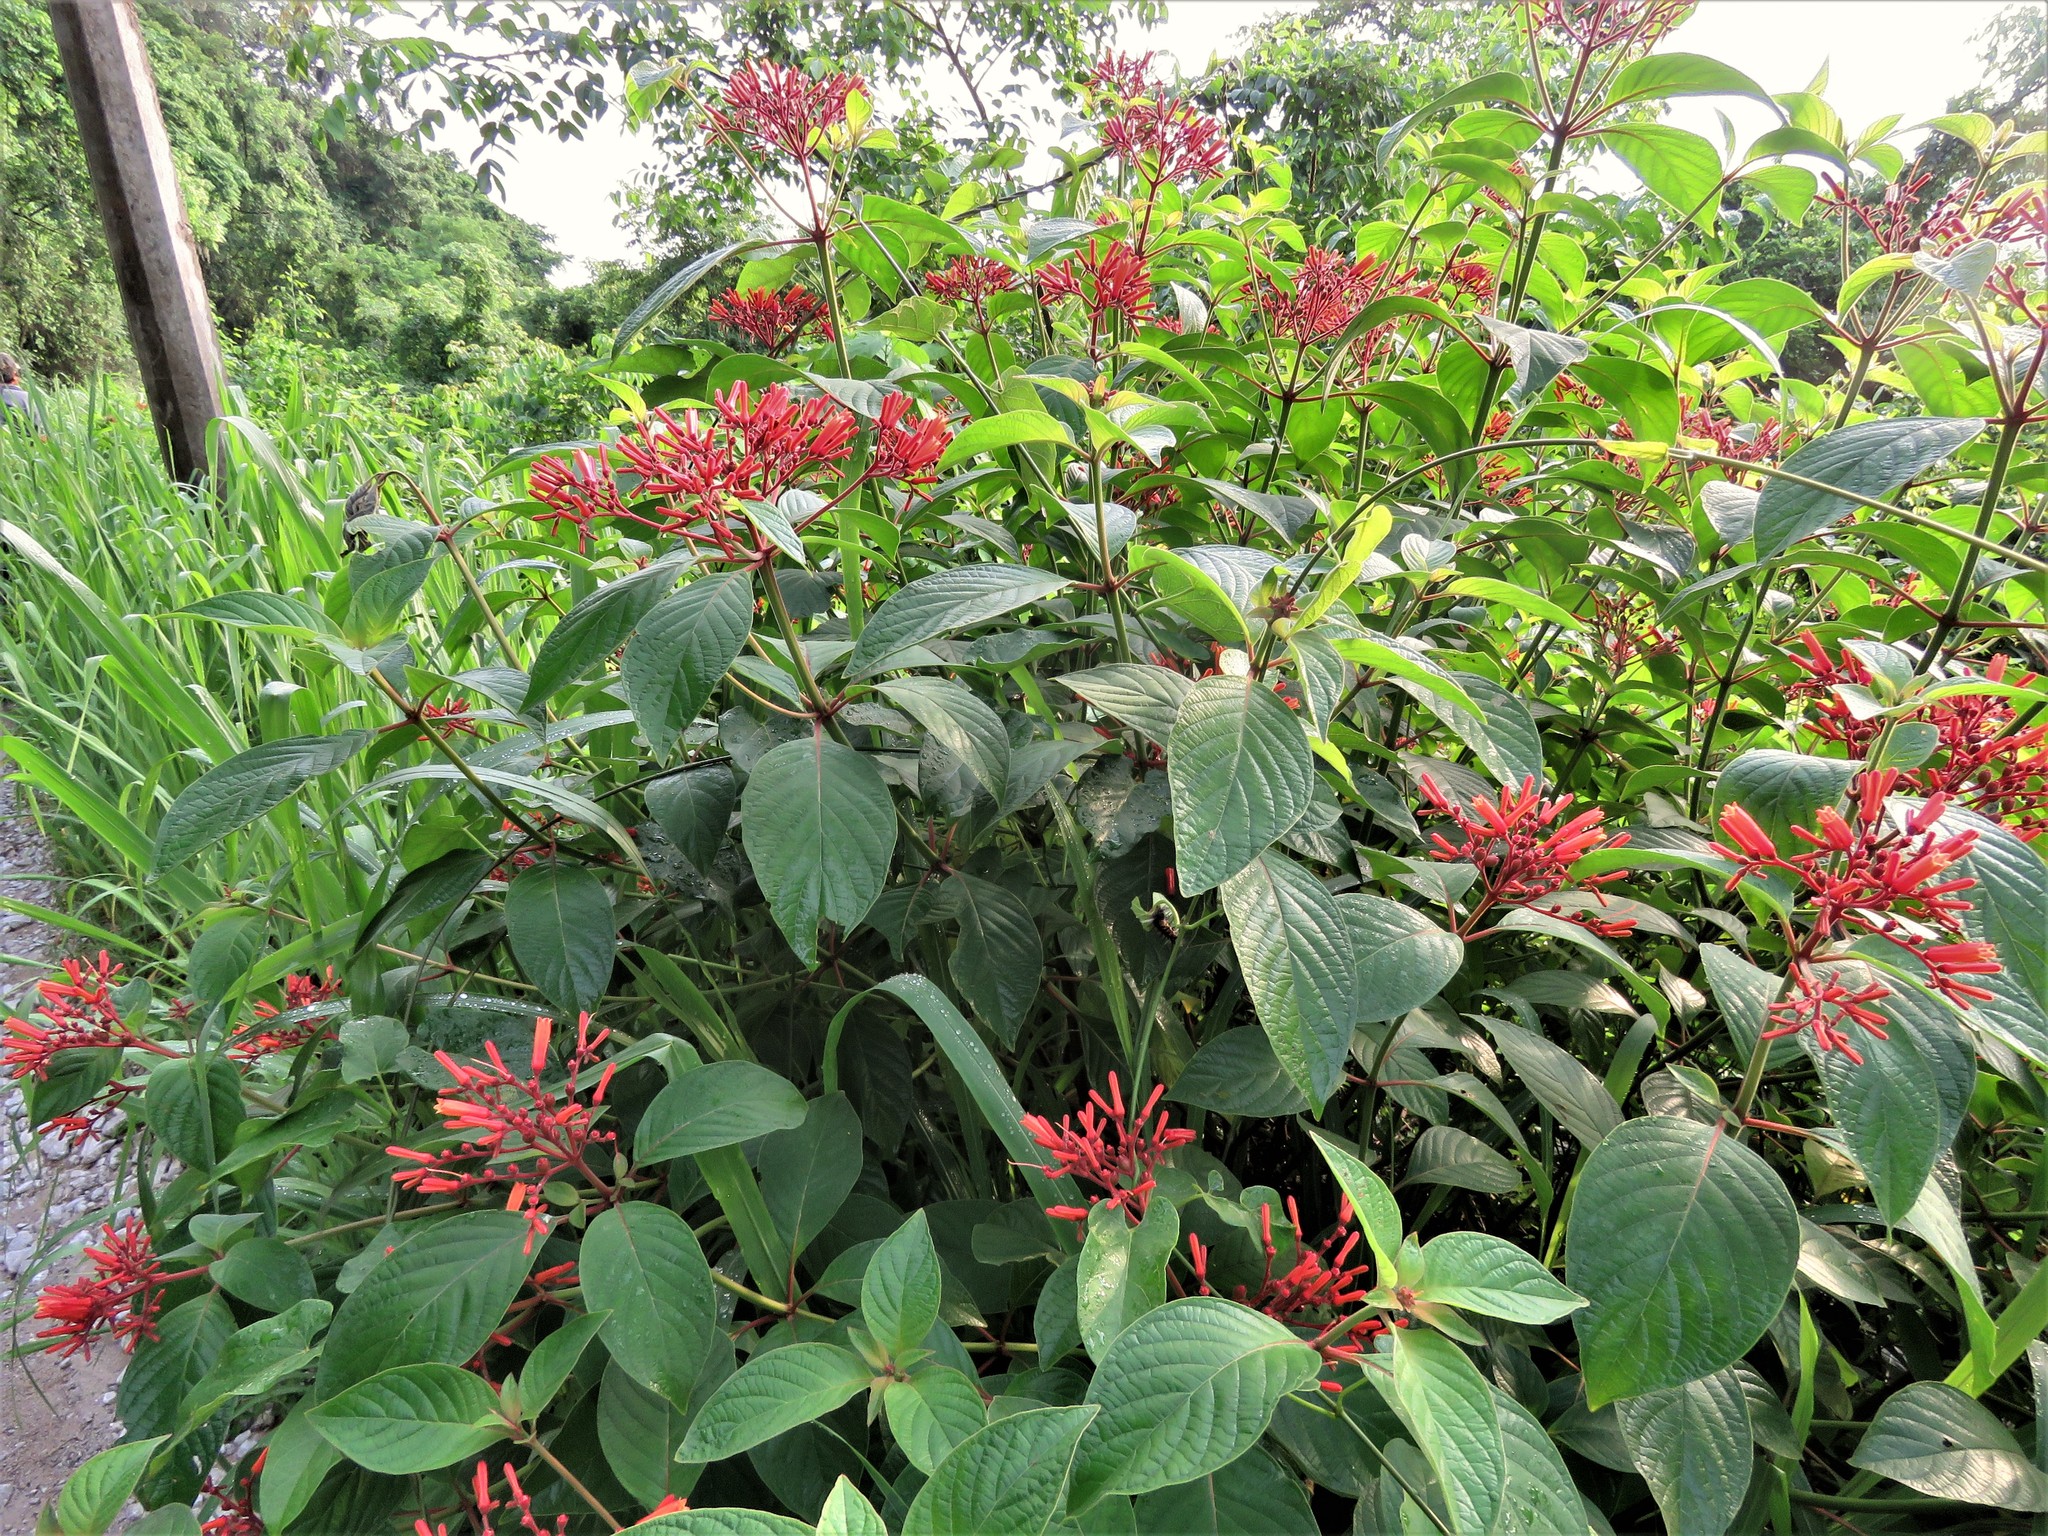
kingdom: Plantae
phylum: Tracheophyta
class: Magnoliopsida
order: Gentianales
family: Rubiaceae
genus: Hamelia
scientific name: Hamelia patens
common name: Redhead
